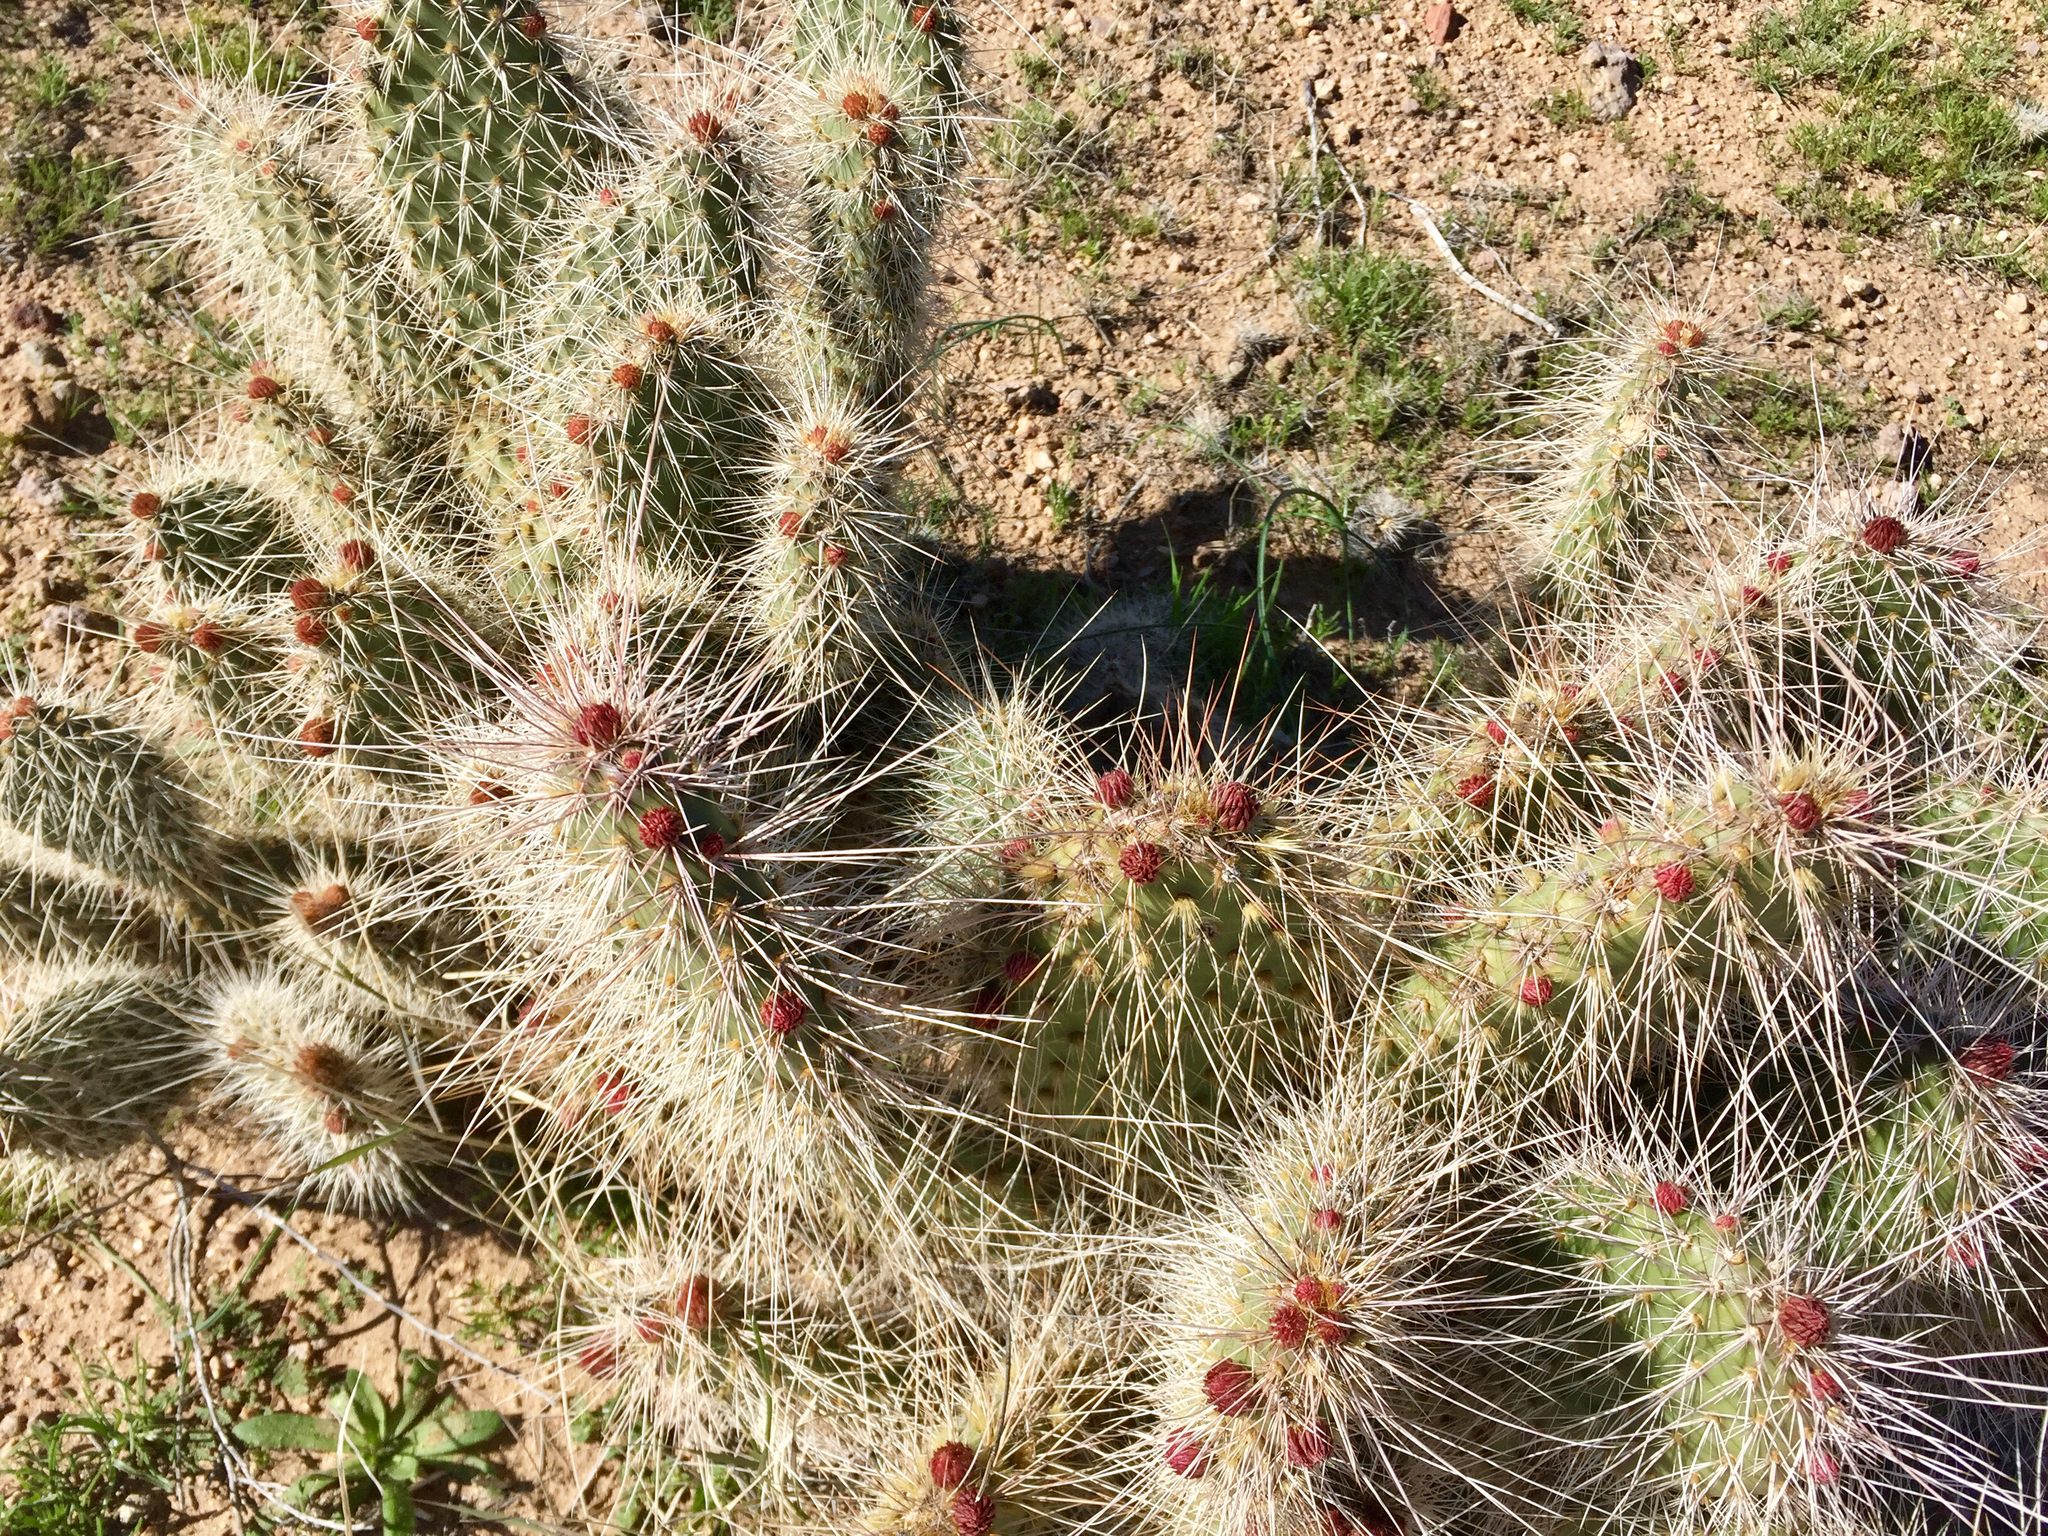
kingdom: Plantae
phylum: Tracheophyta
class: Magnoliopsida
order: Caryophyllales
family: Cactaceae
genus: Opuntia
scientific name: Opuntia polyacantha
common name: Plains prickly-pear
